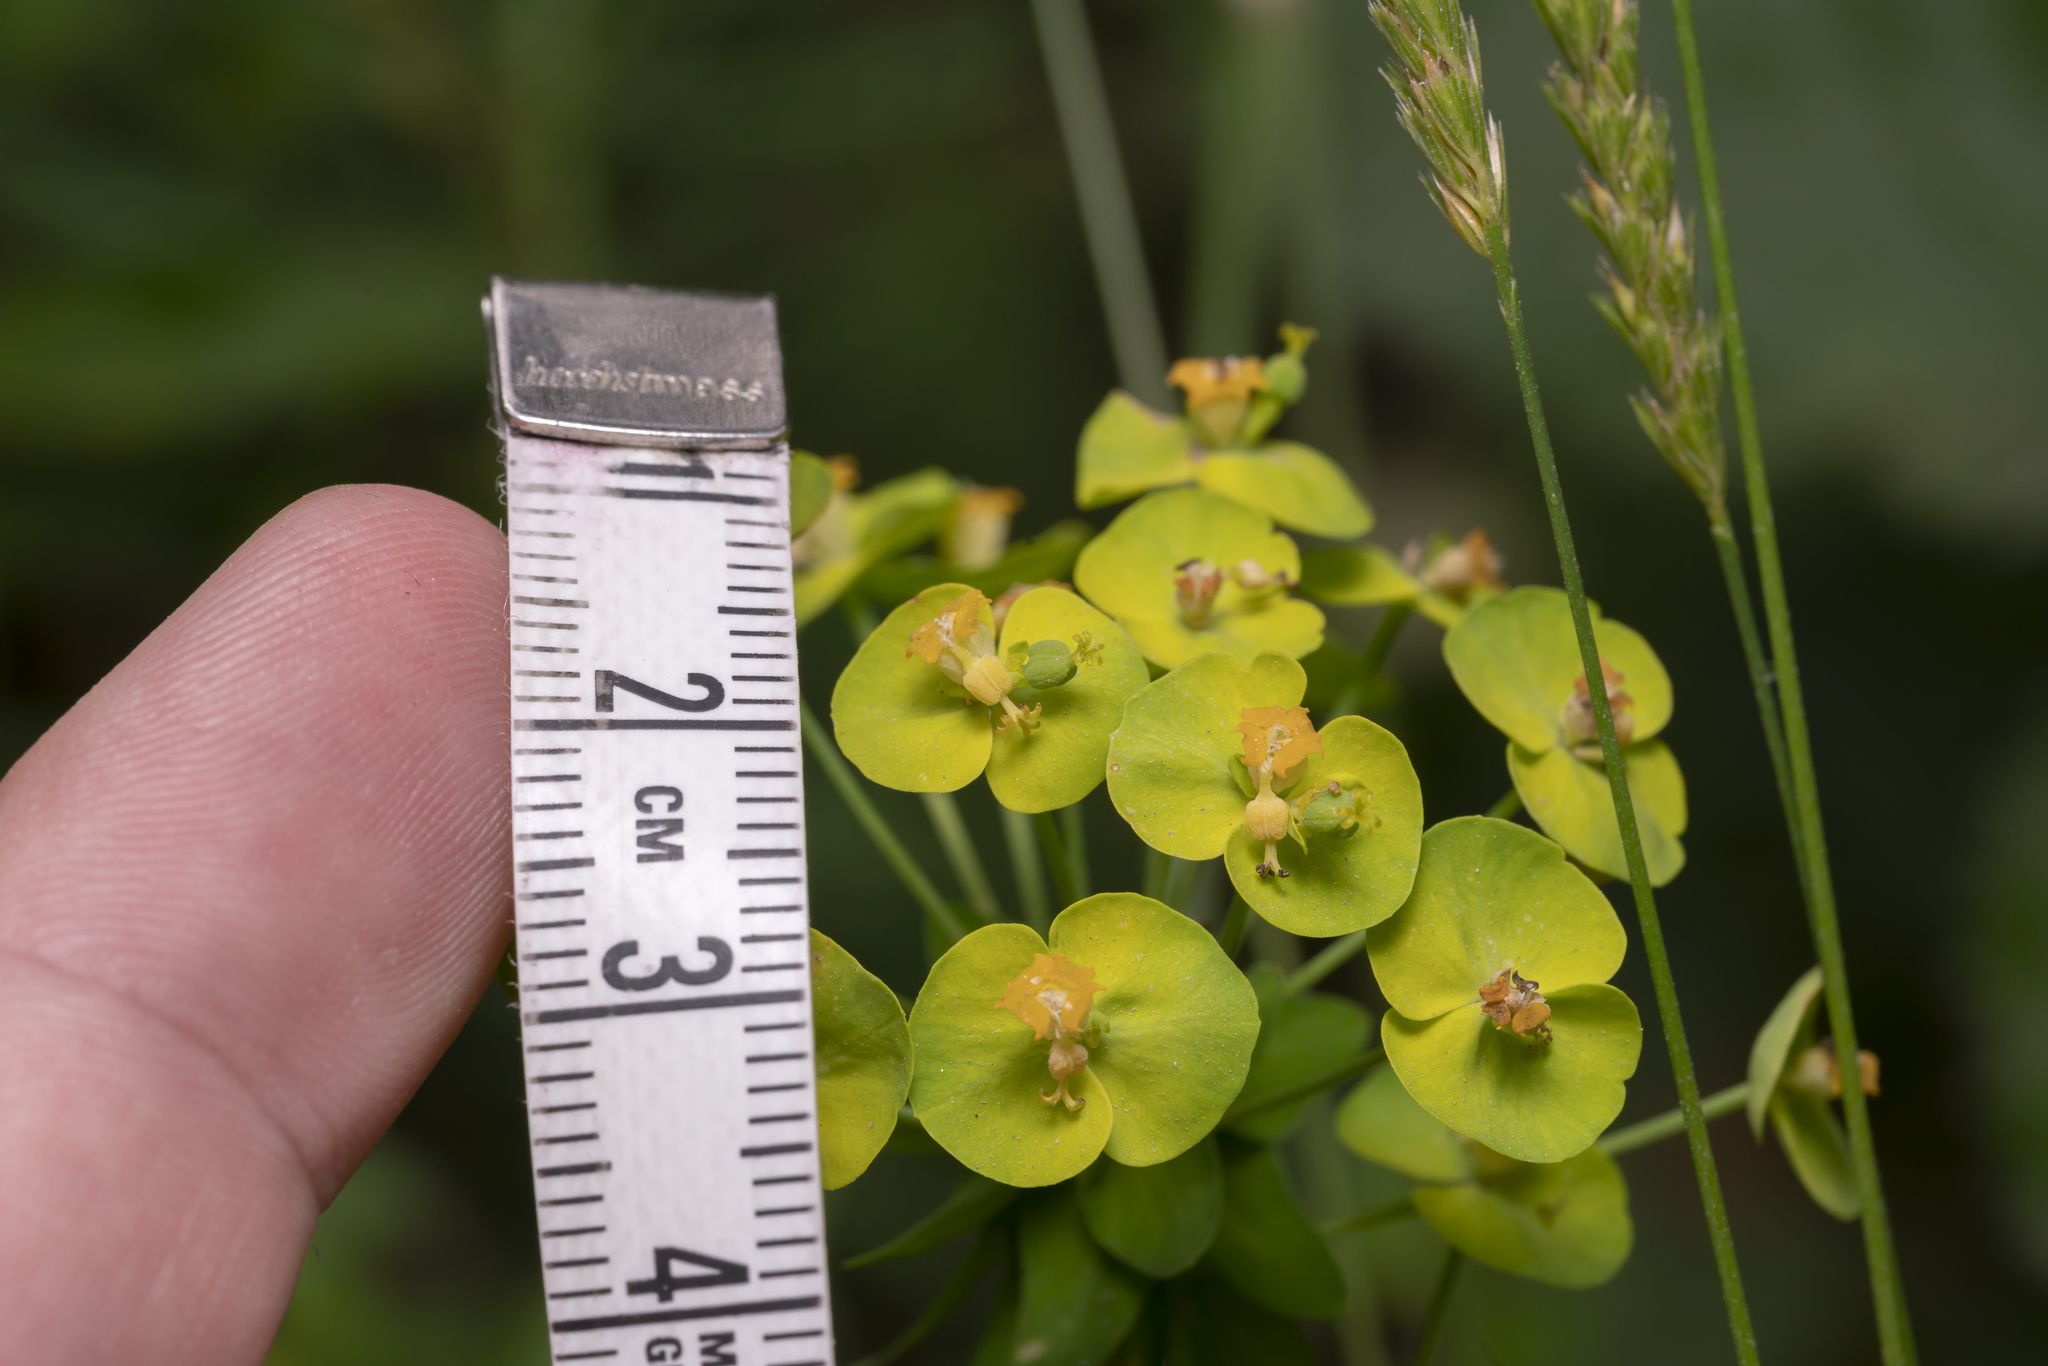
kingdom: Plantae
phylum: Tracheophyta
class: Magnoliopsida
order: Malpighiales
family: Euphorbiaceae
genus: Euphorbia
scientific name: Euphorbia cyparissias
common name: Cypress spurge
